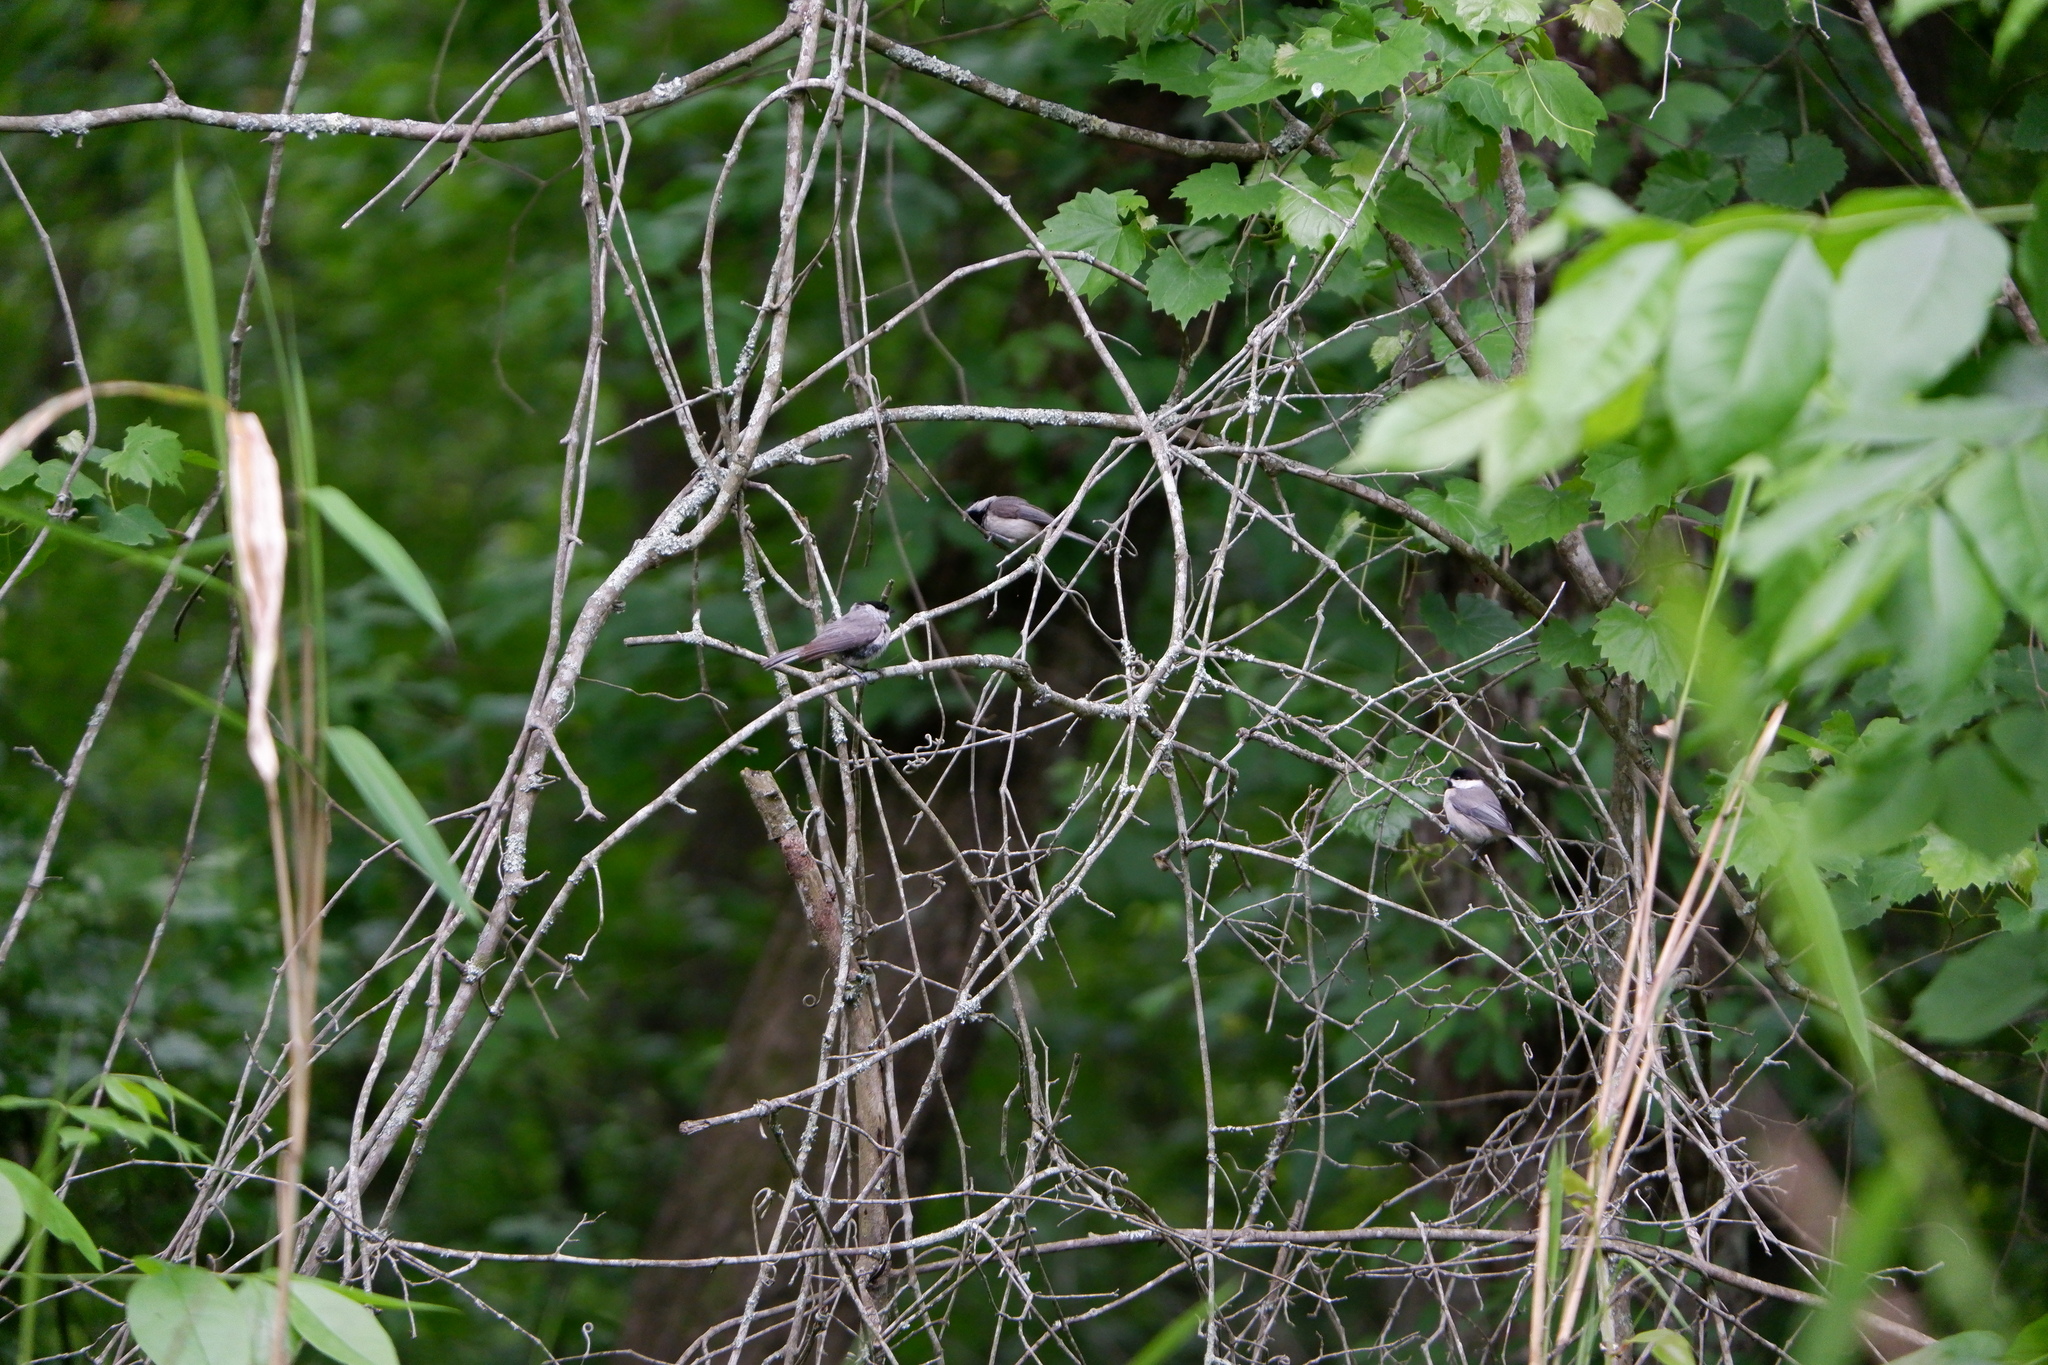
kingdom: Animalia
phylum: Chordata
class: Aves
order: Passeriformes
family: Paridae
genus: Poecile
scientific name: Poecile carolinensis
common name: Carolina chickadee
